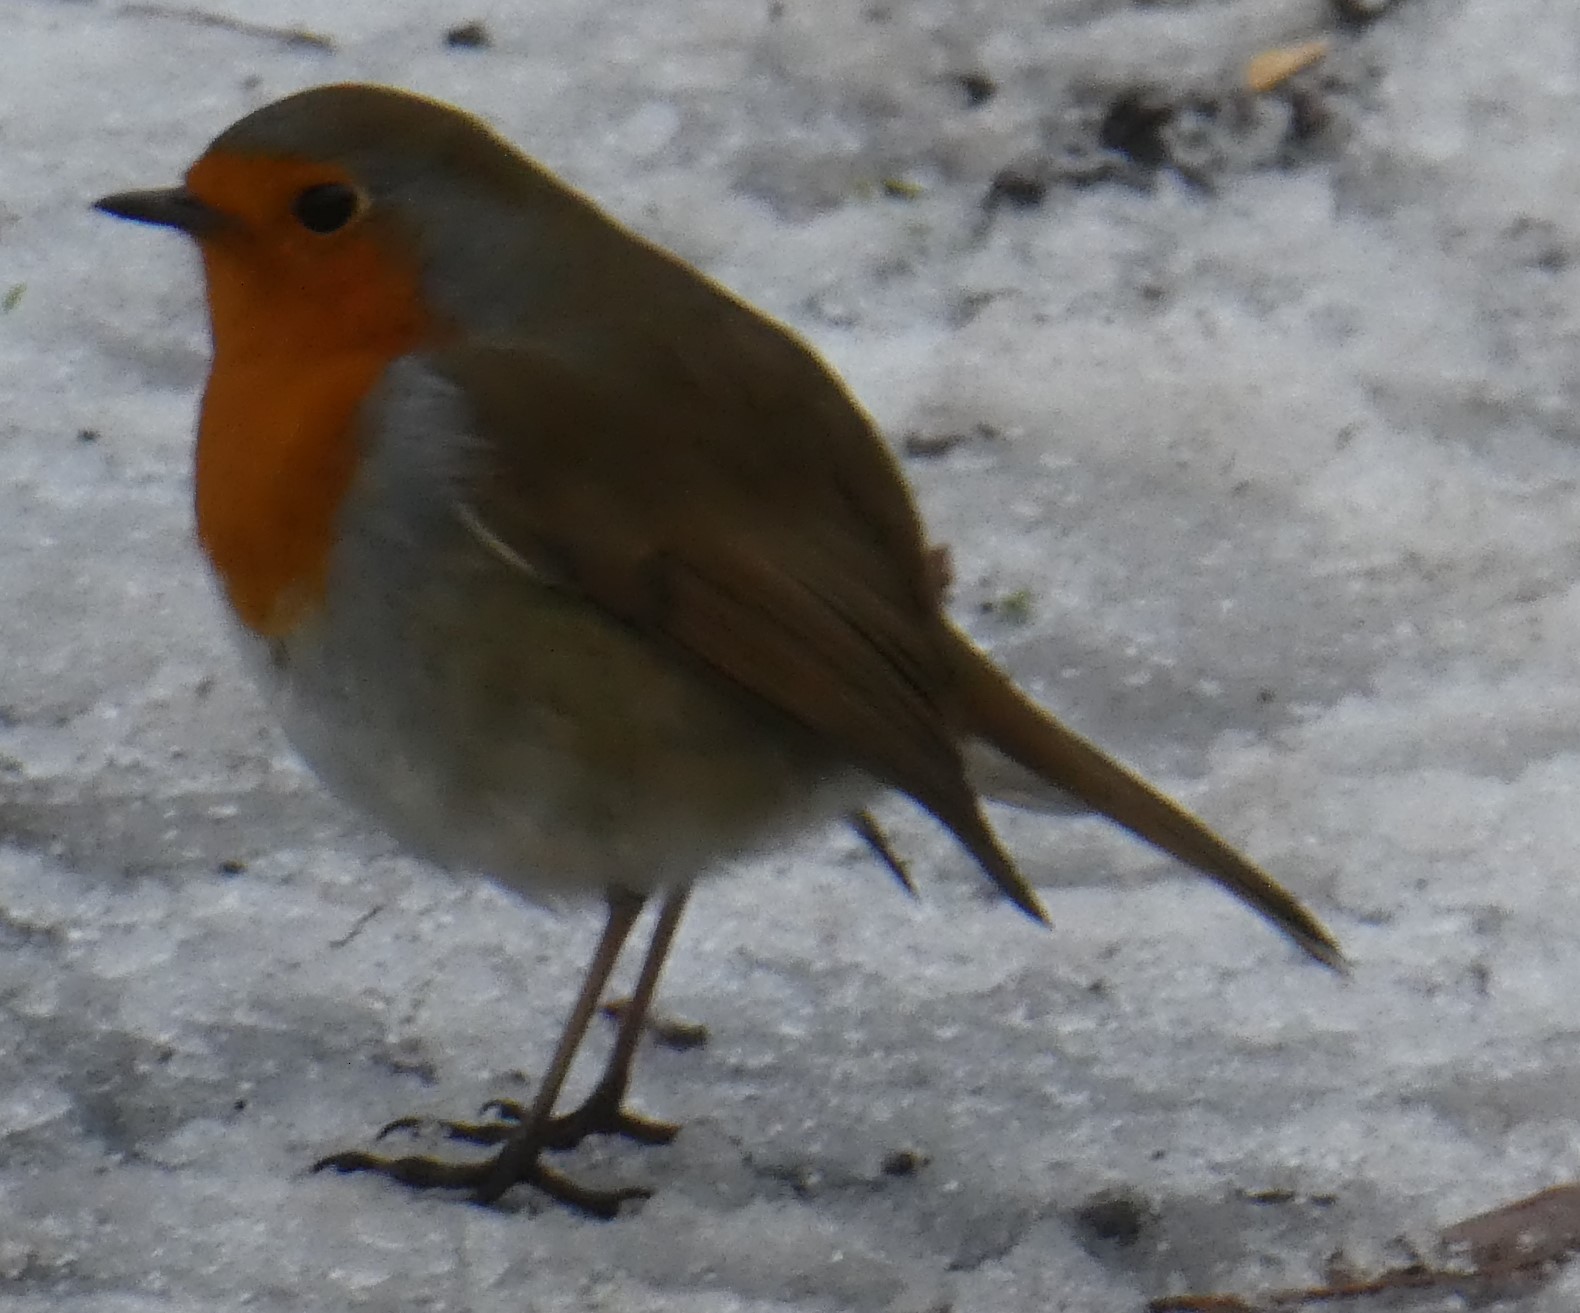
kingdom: Animalia
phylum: Chordata
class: Aves
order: Passeriformes
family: Muscicapidae
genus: Erithacus
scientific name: Erithacus rubecula
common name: European robin
